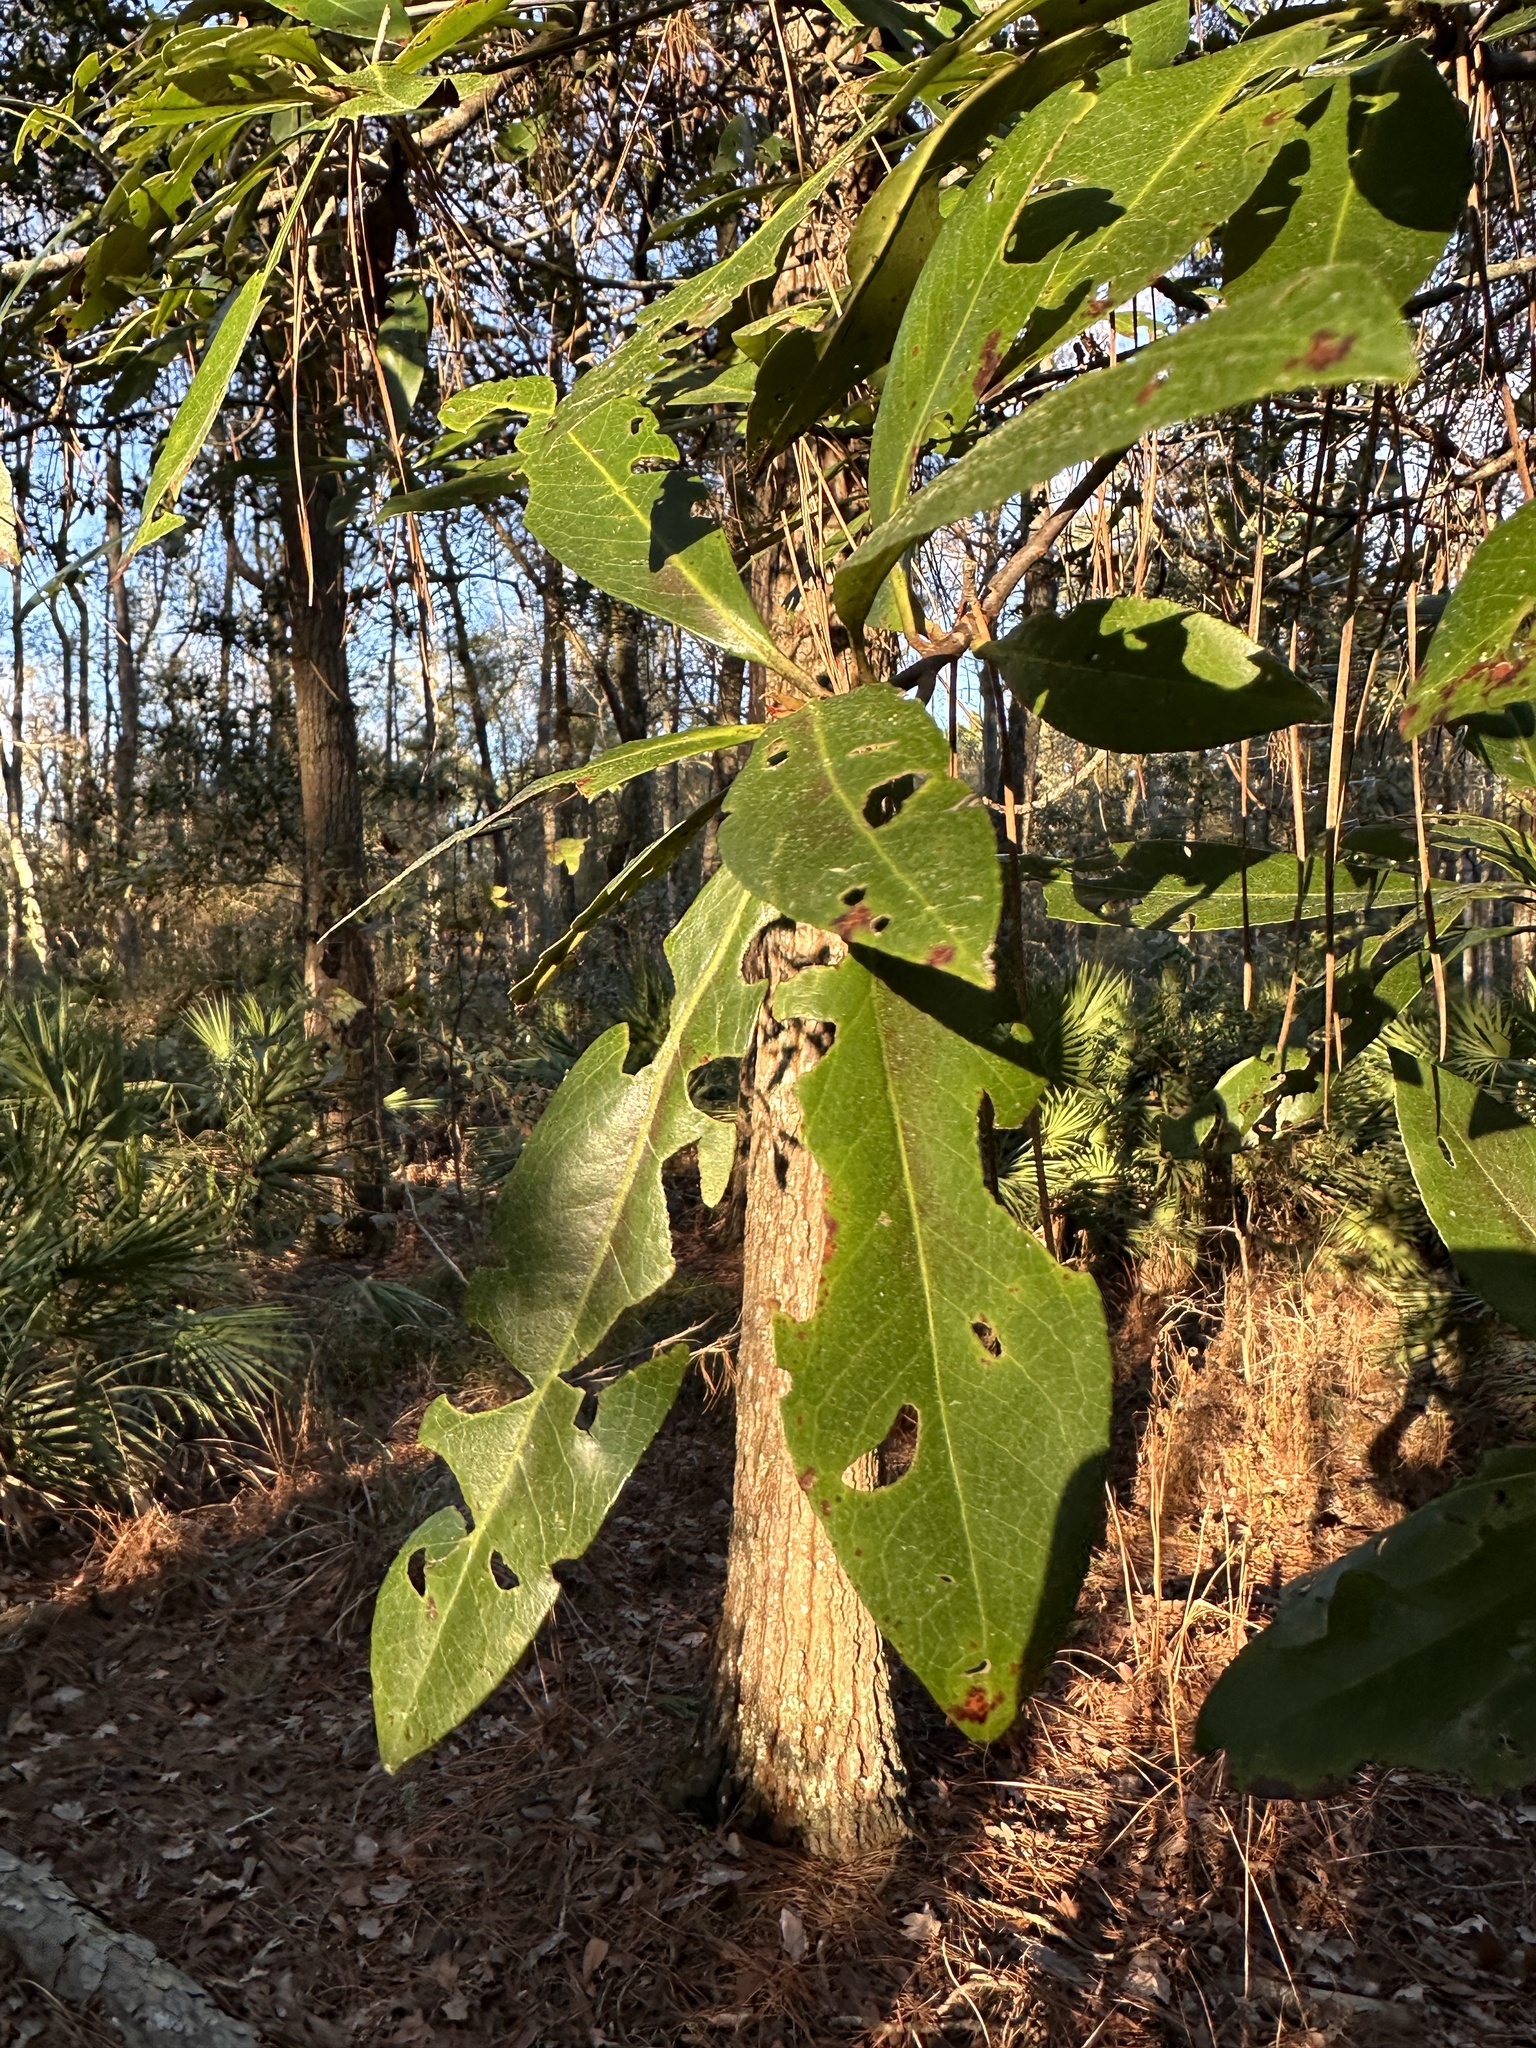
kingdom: Plantae
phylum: Tracheophyta
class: Magnoliopsida
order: Ericales
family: Theaceae
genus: Gordonia
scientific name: Gordonia lasianthus
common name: Loblolly bay
